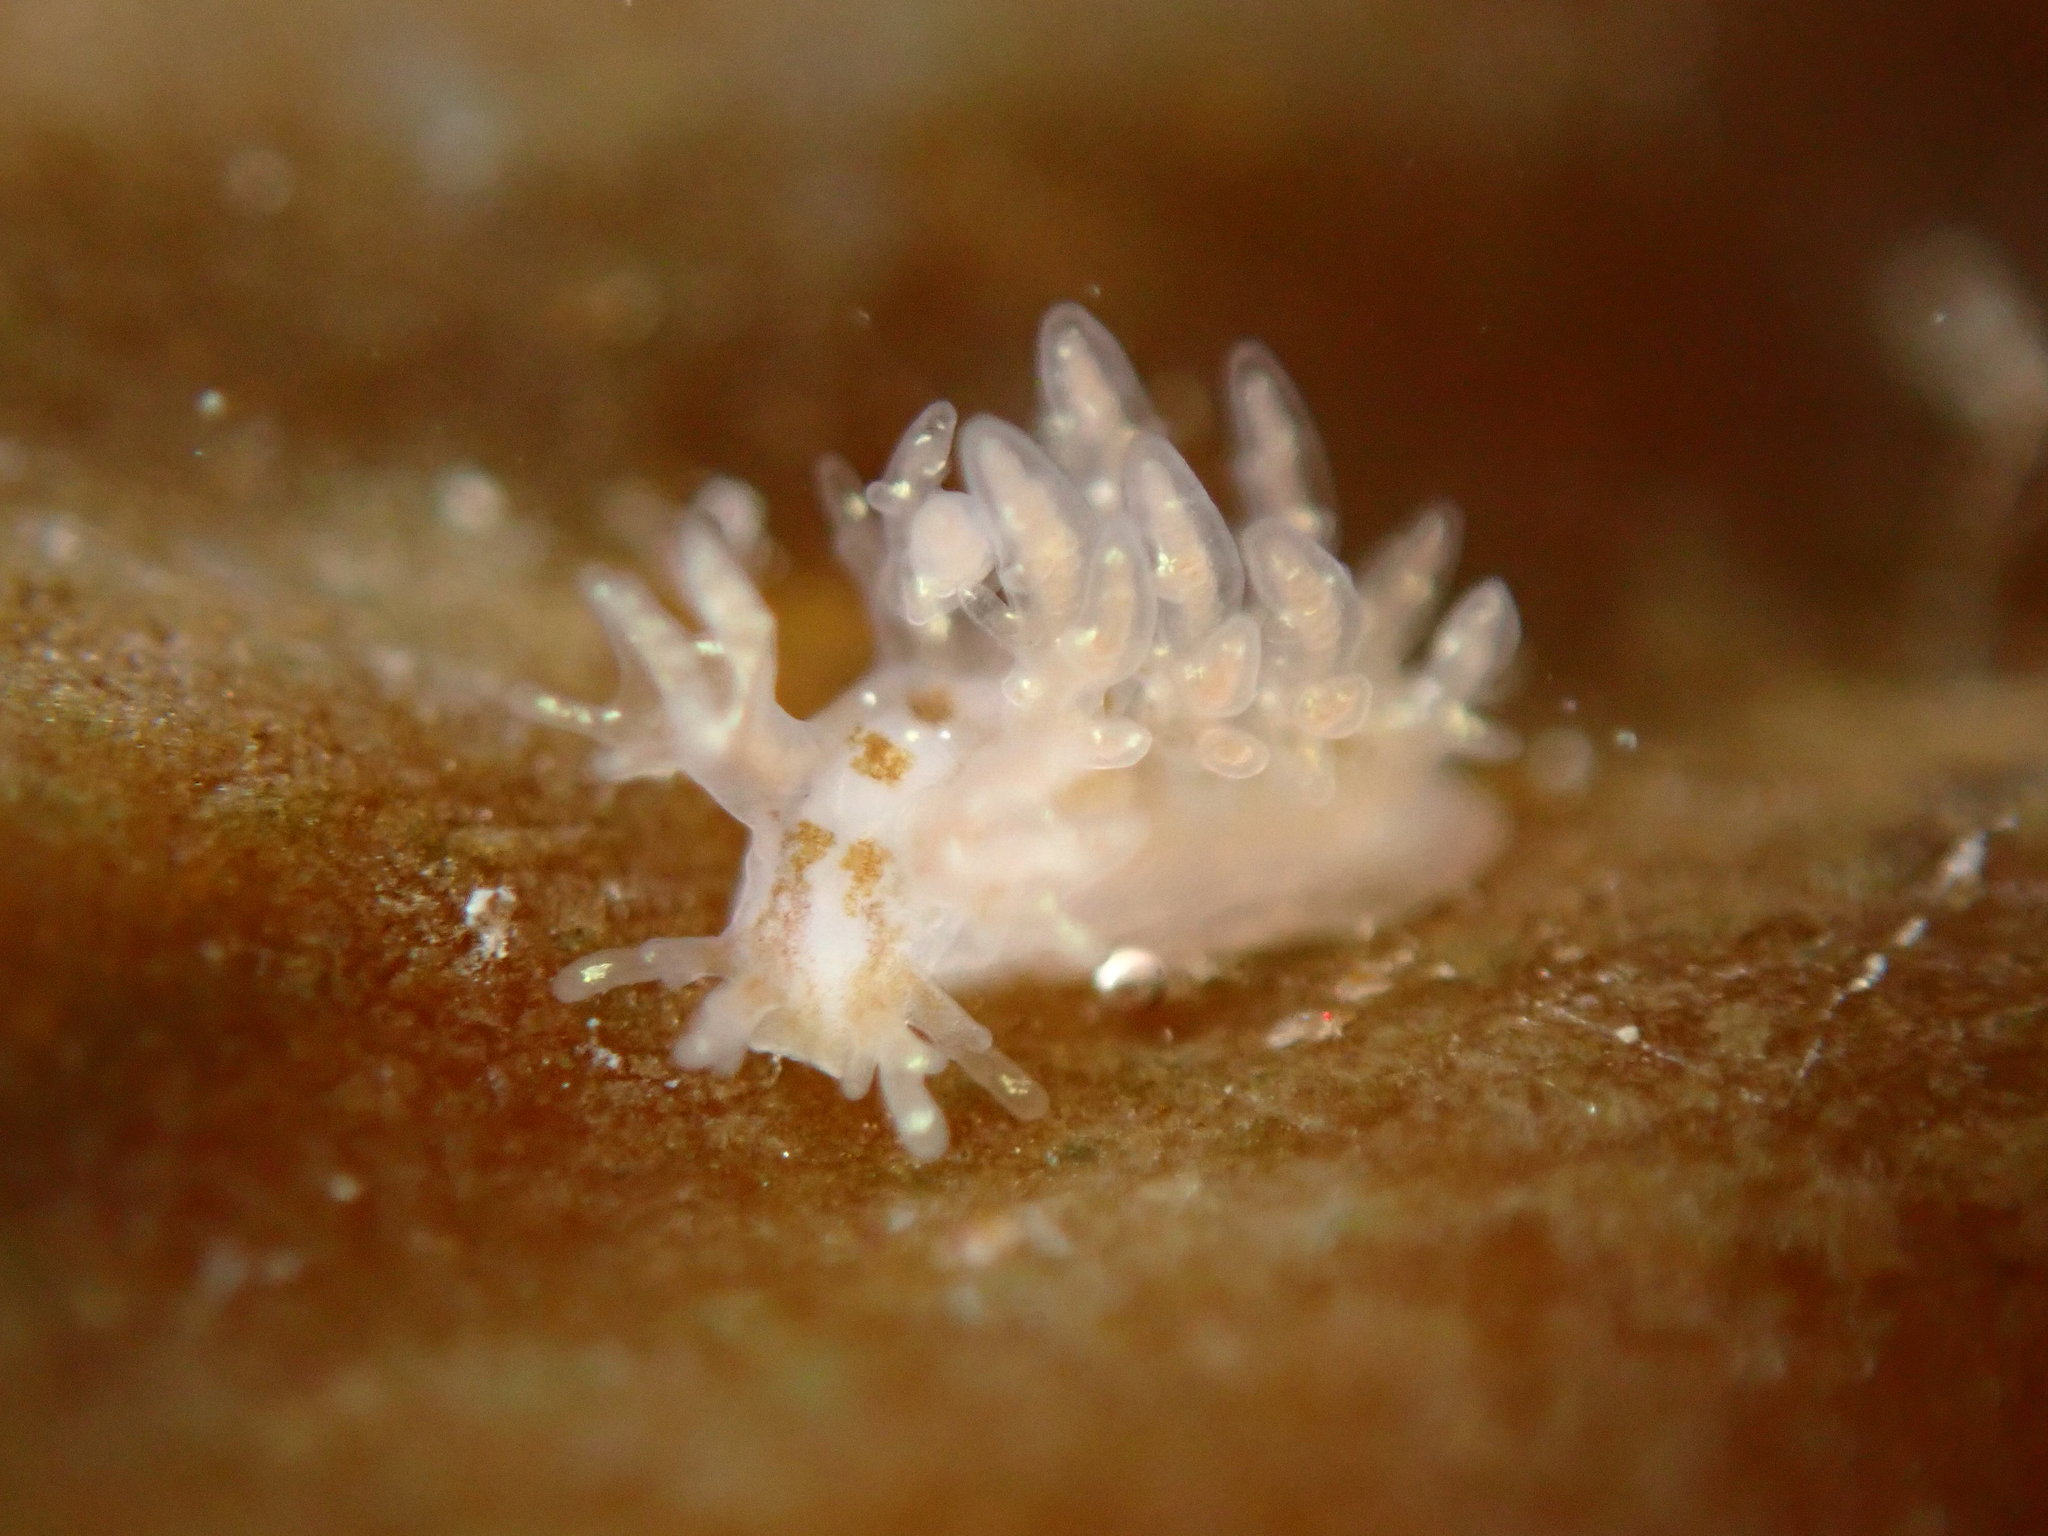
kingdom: Animalia
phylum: Mollusca
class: Gastropoda
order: Nudibranchia
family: Dendronotidae
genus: Dendronotus
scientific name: Dendronotus venustus
